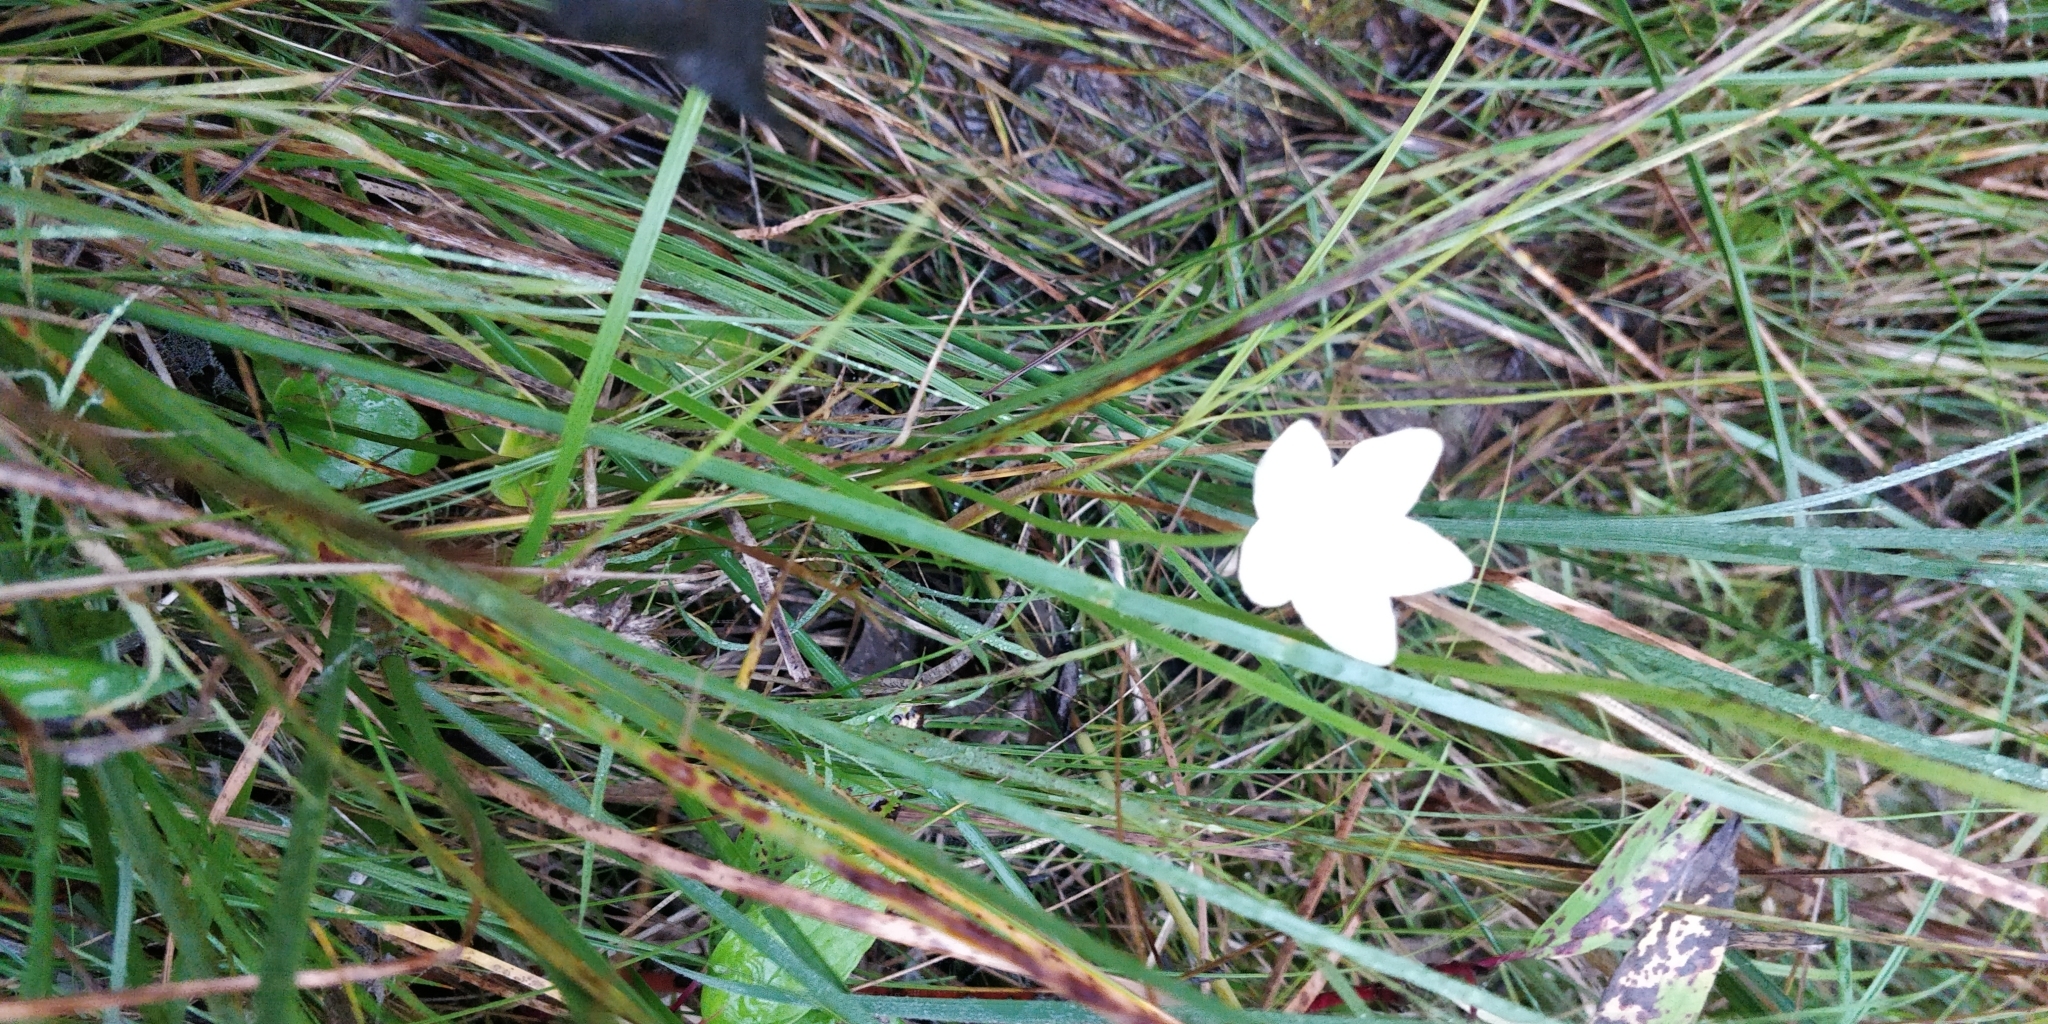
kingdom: Plantae
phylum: Tracheophyta
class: Magnoliopsida
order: Celastrales
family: Parnassiaceae
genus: Parnassia
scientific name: Parnassia glauca
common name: American grass-of-parnassus
